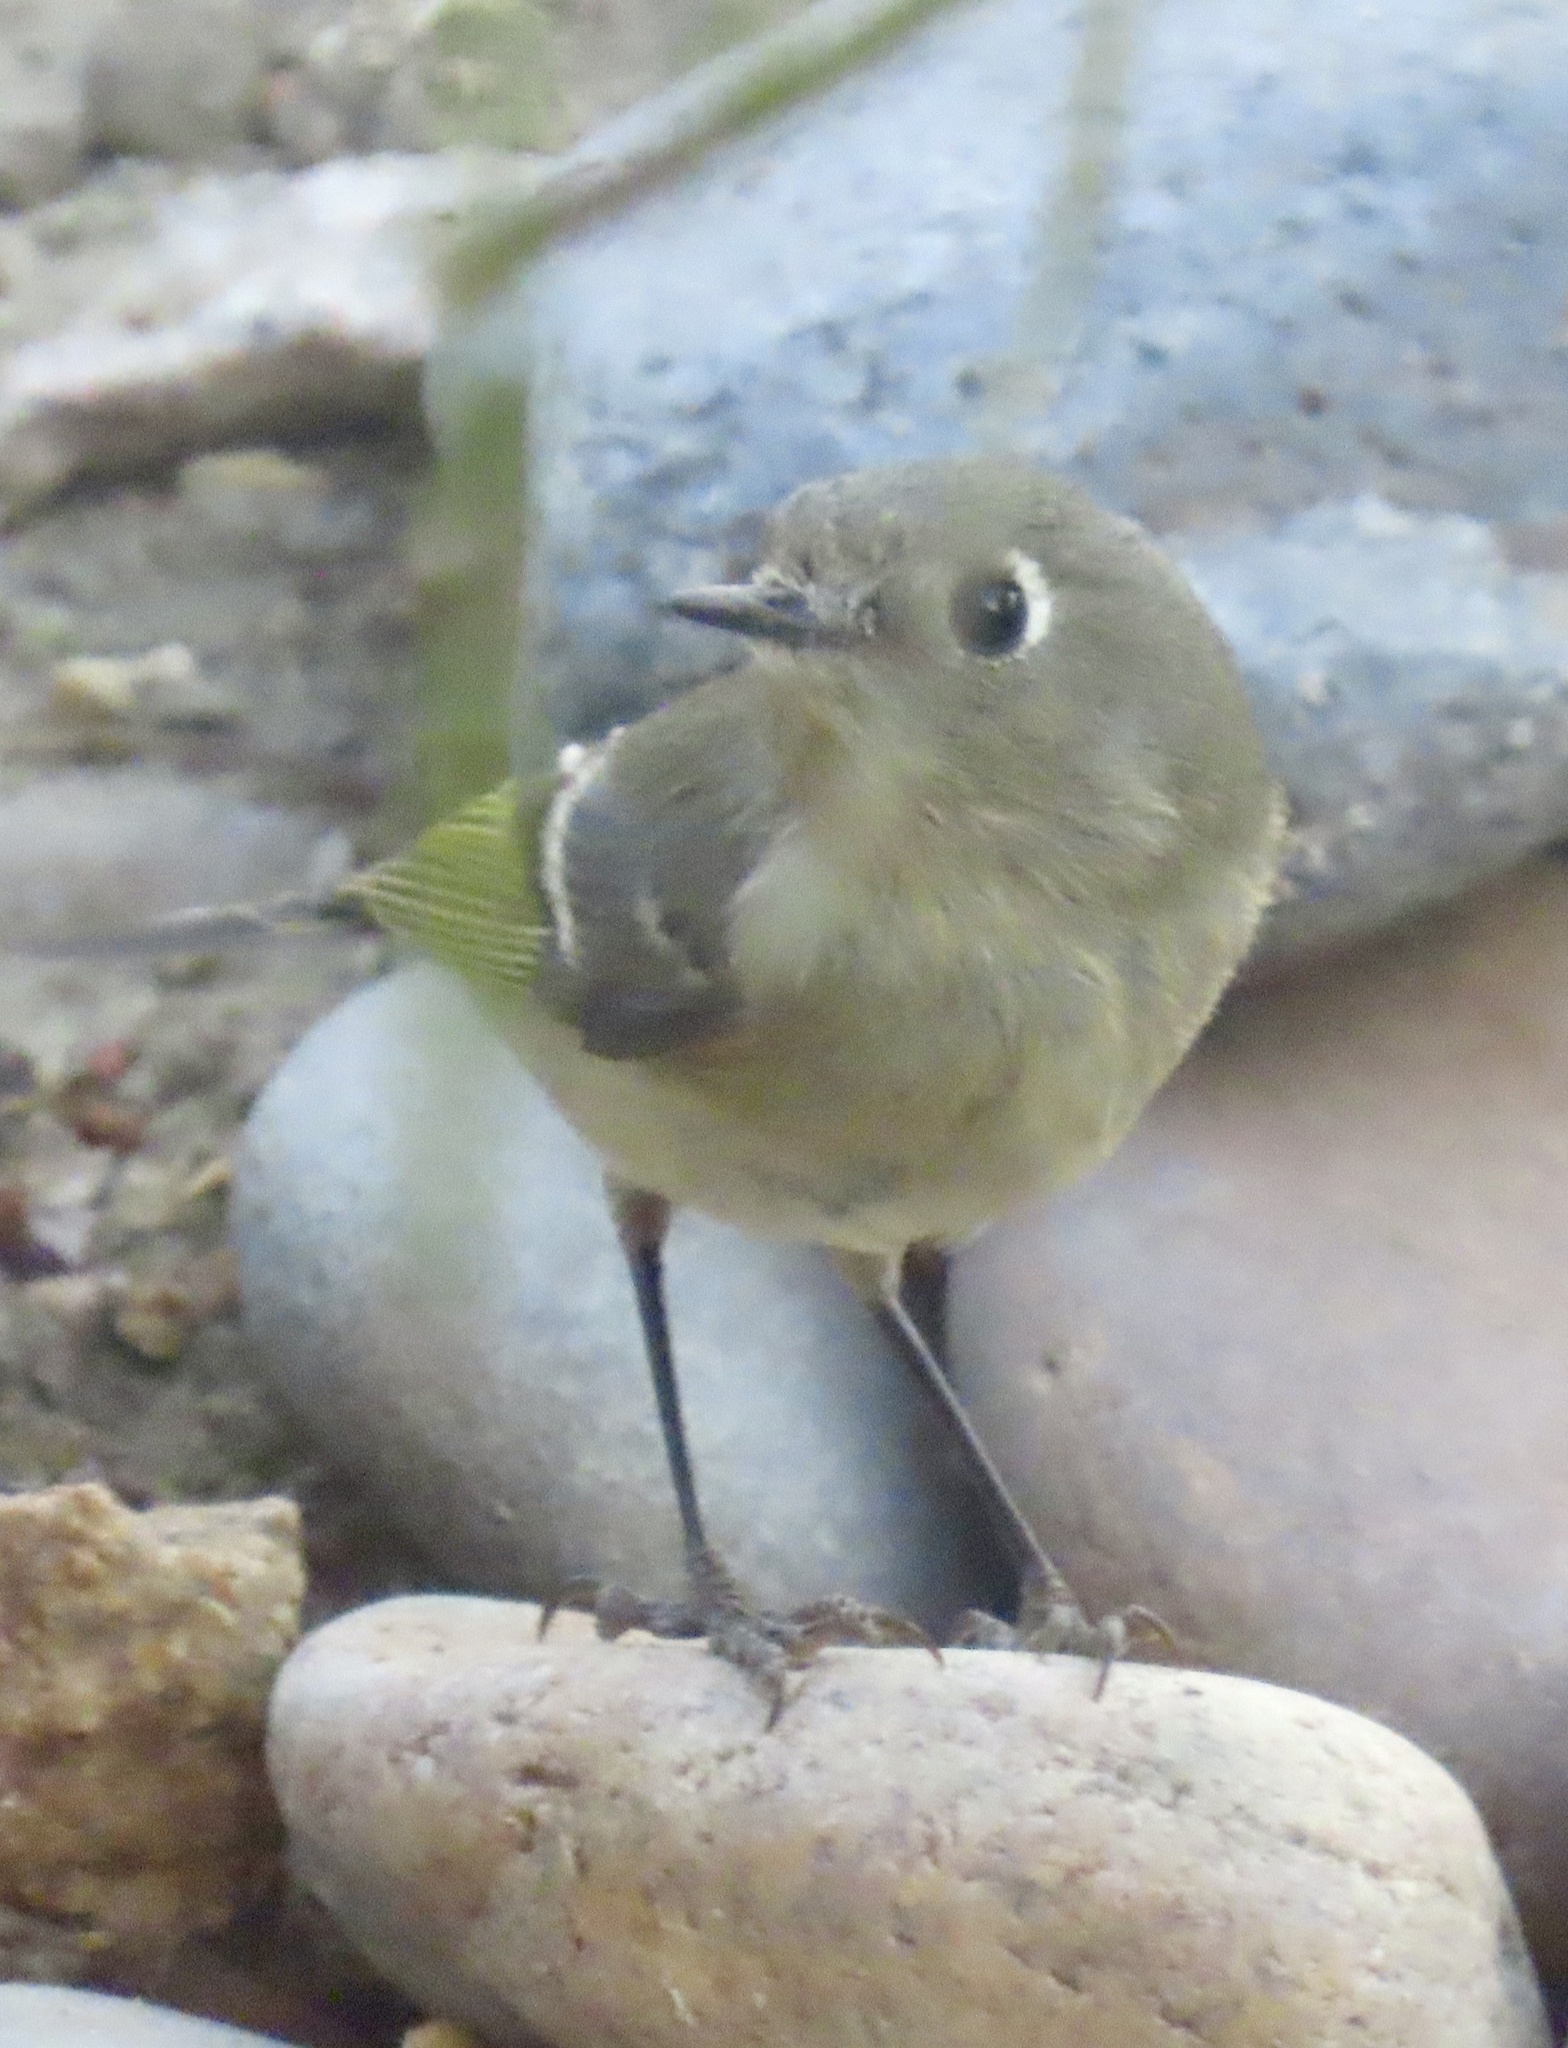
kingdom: Animalia
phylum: Chordata
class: Aves
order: Passeriformes
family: Regulidae
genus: Regulus
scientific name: Regulus calendula
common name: Ruby-crowned kinglet
